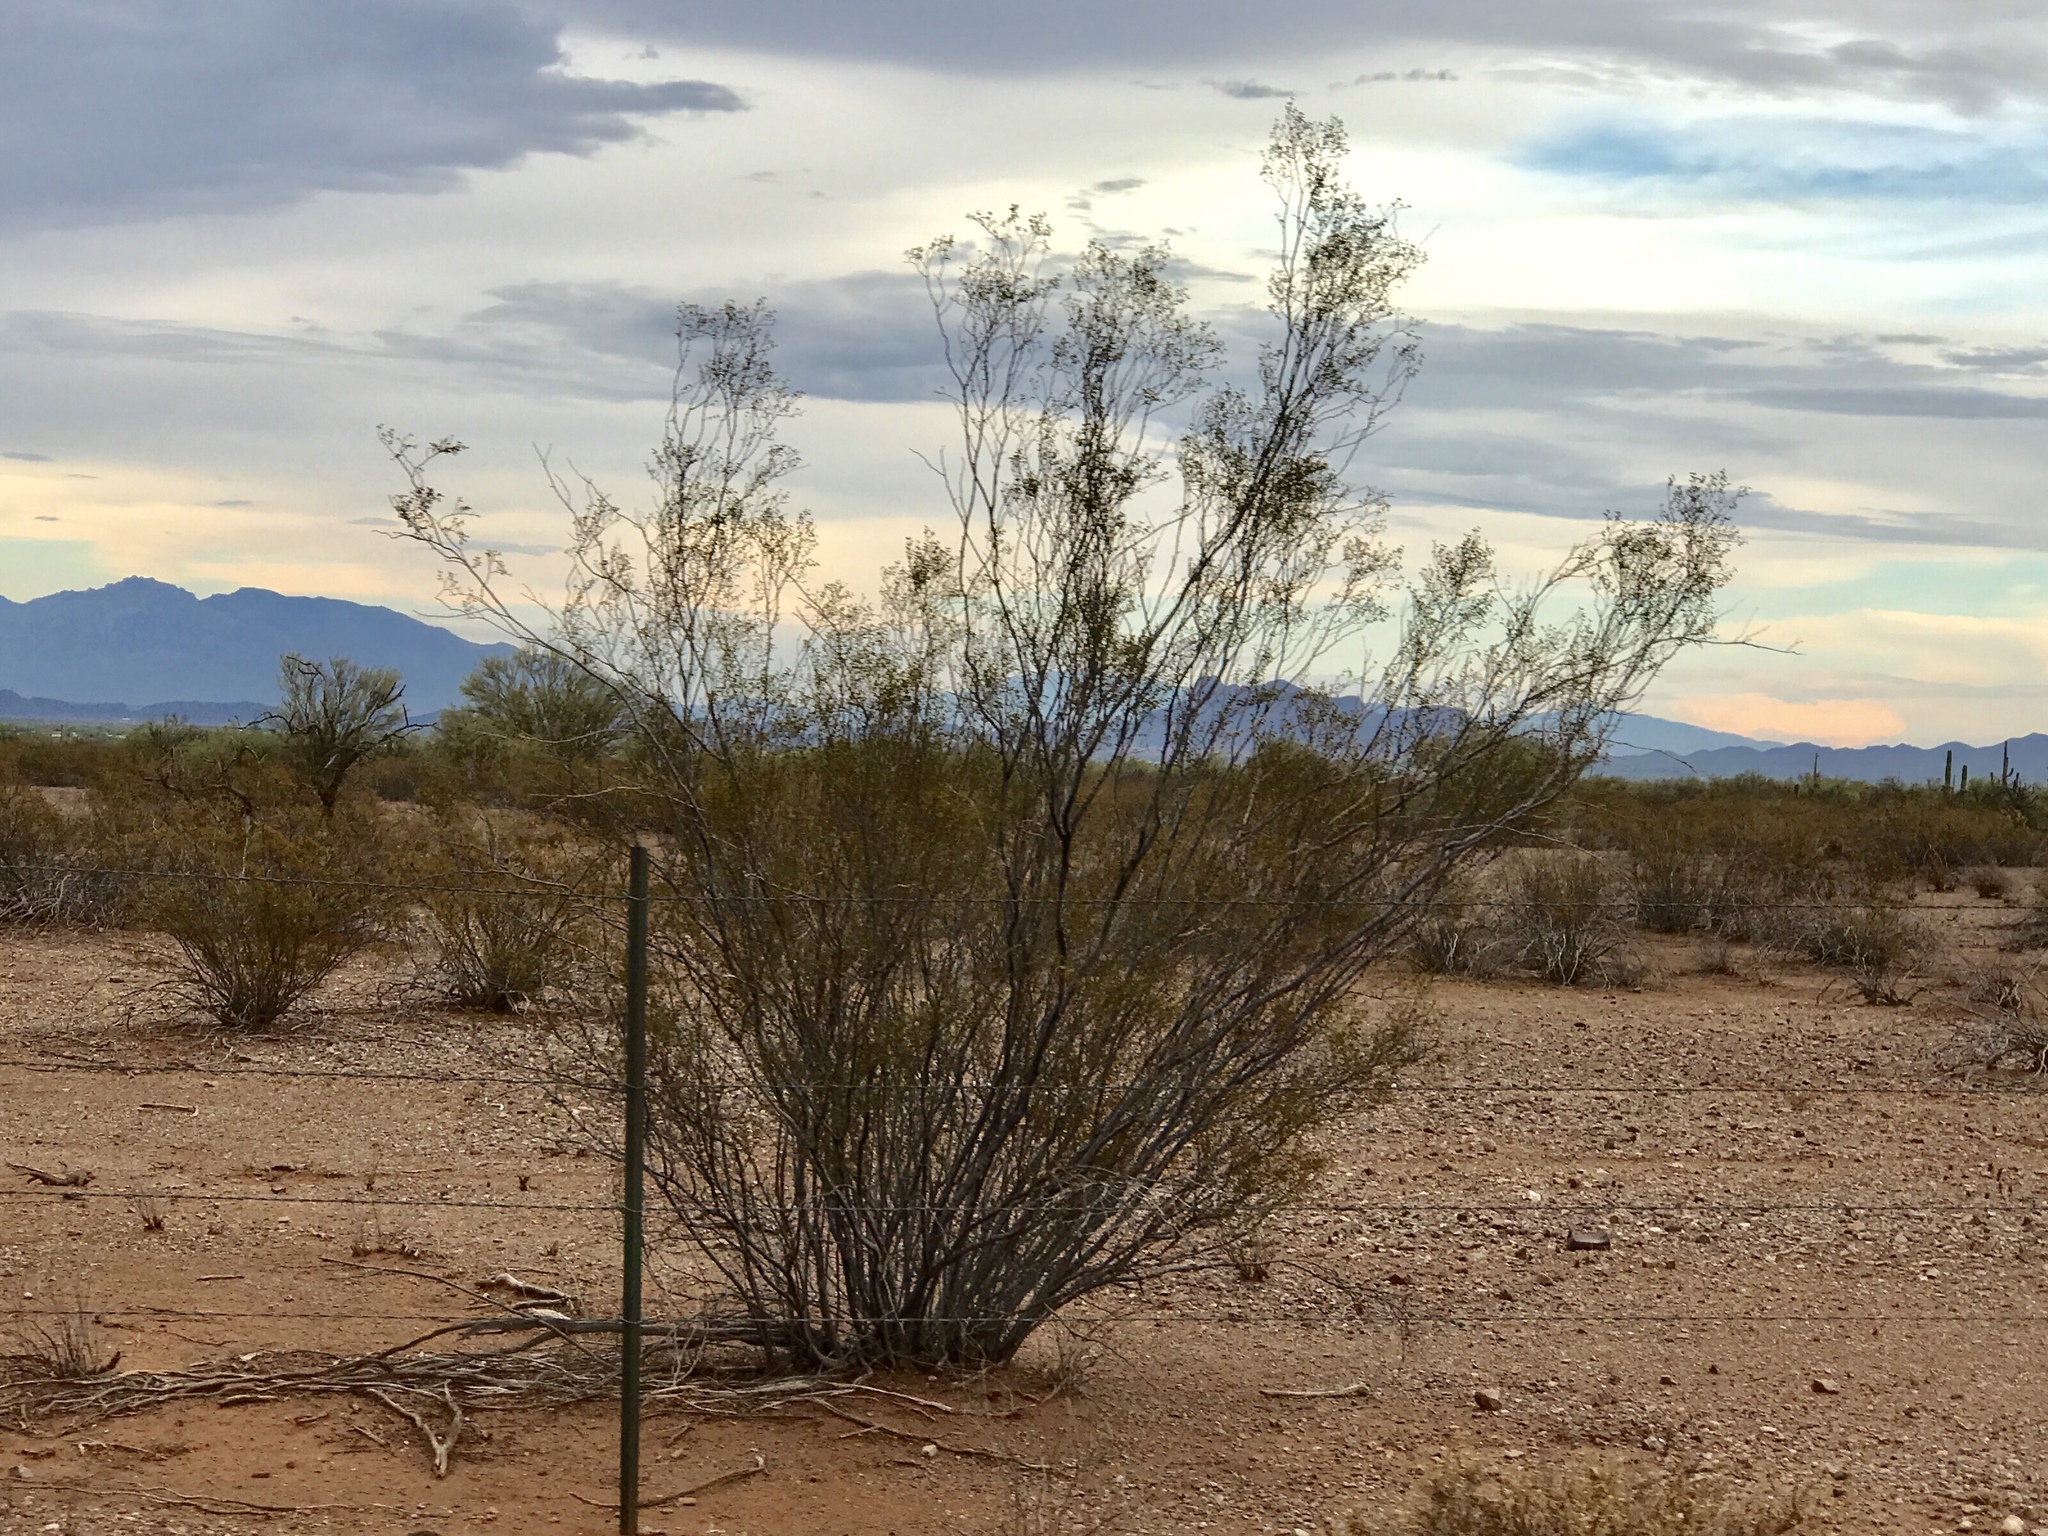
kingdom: Plantae
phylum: Tracheophyta
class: Magnoliopsida
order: Zygophyllales
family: Zygophyllaceae
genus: Larrea
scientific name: Larrea tridentata
